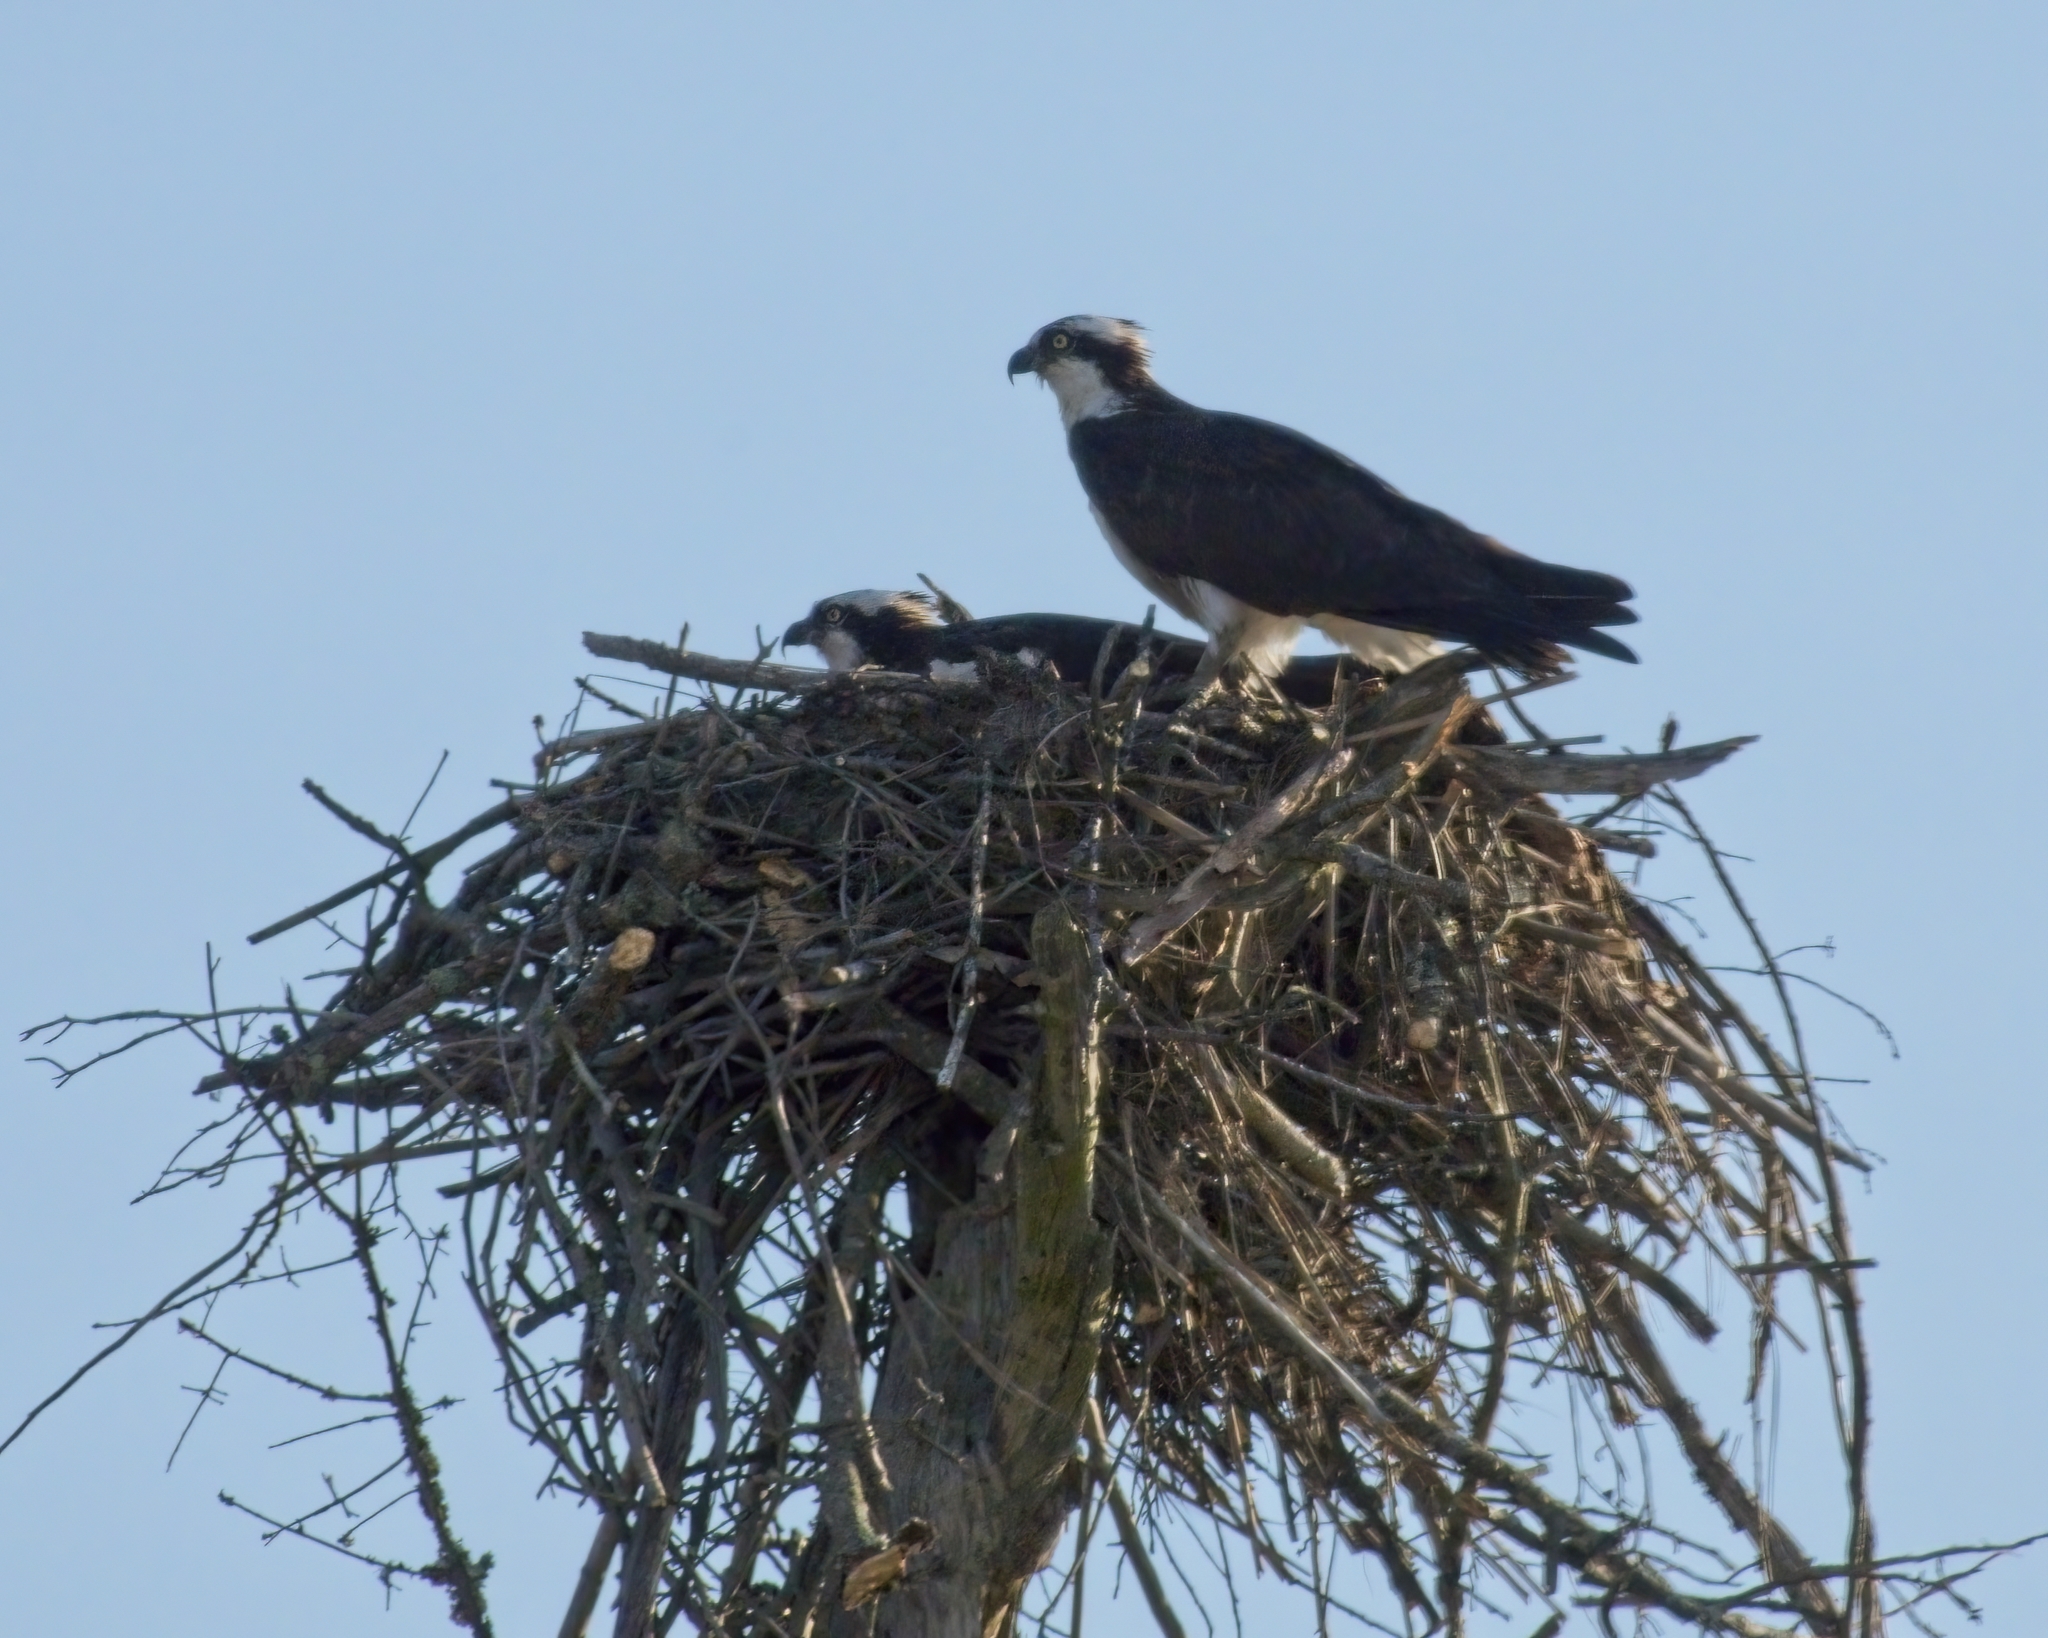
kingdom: Animalia
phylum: Chordata
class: Aves
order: Accipitriformes
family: Pandionidae
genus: Pandion
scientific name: Pandion haliaetus
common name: Osprey
